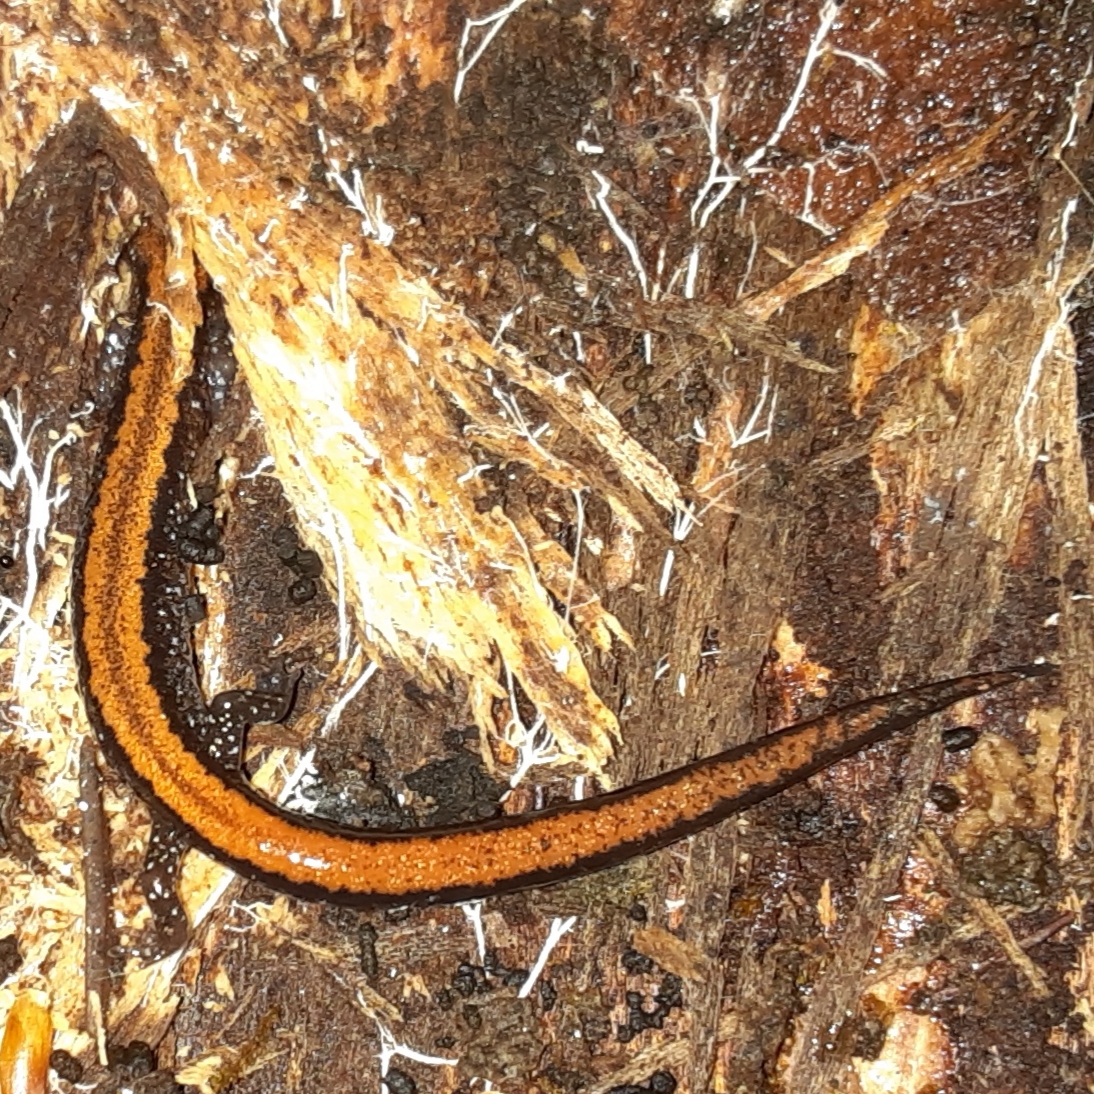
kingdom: Animalia
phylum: Chordata
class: Amphibia
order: Caudata
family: Plethodontidae
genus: Plethodon
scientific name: Plethodon cinereus
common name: Redback salamander
